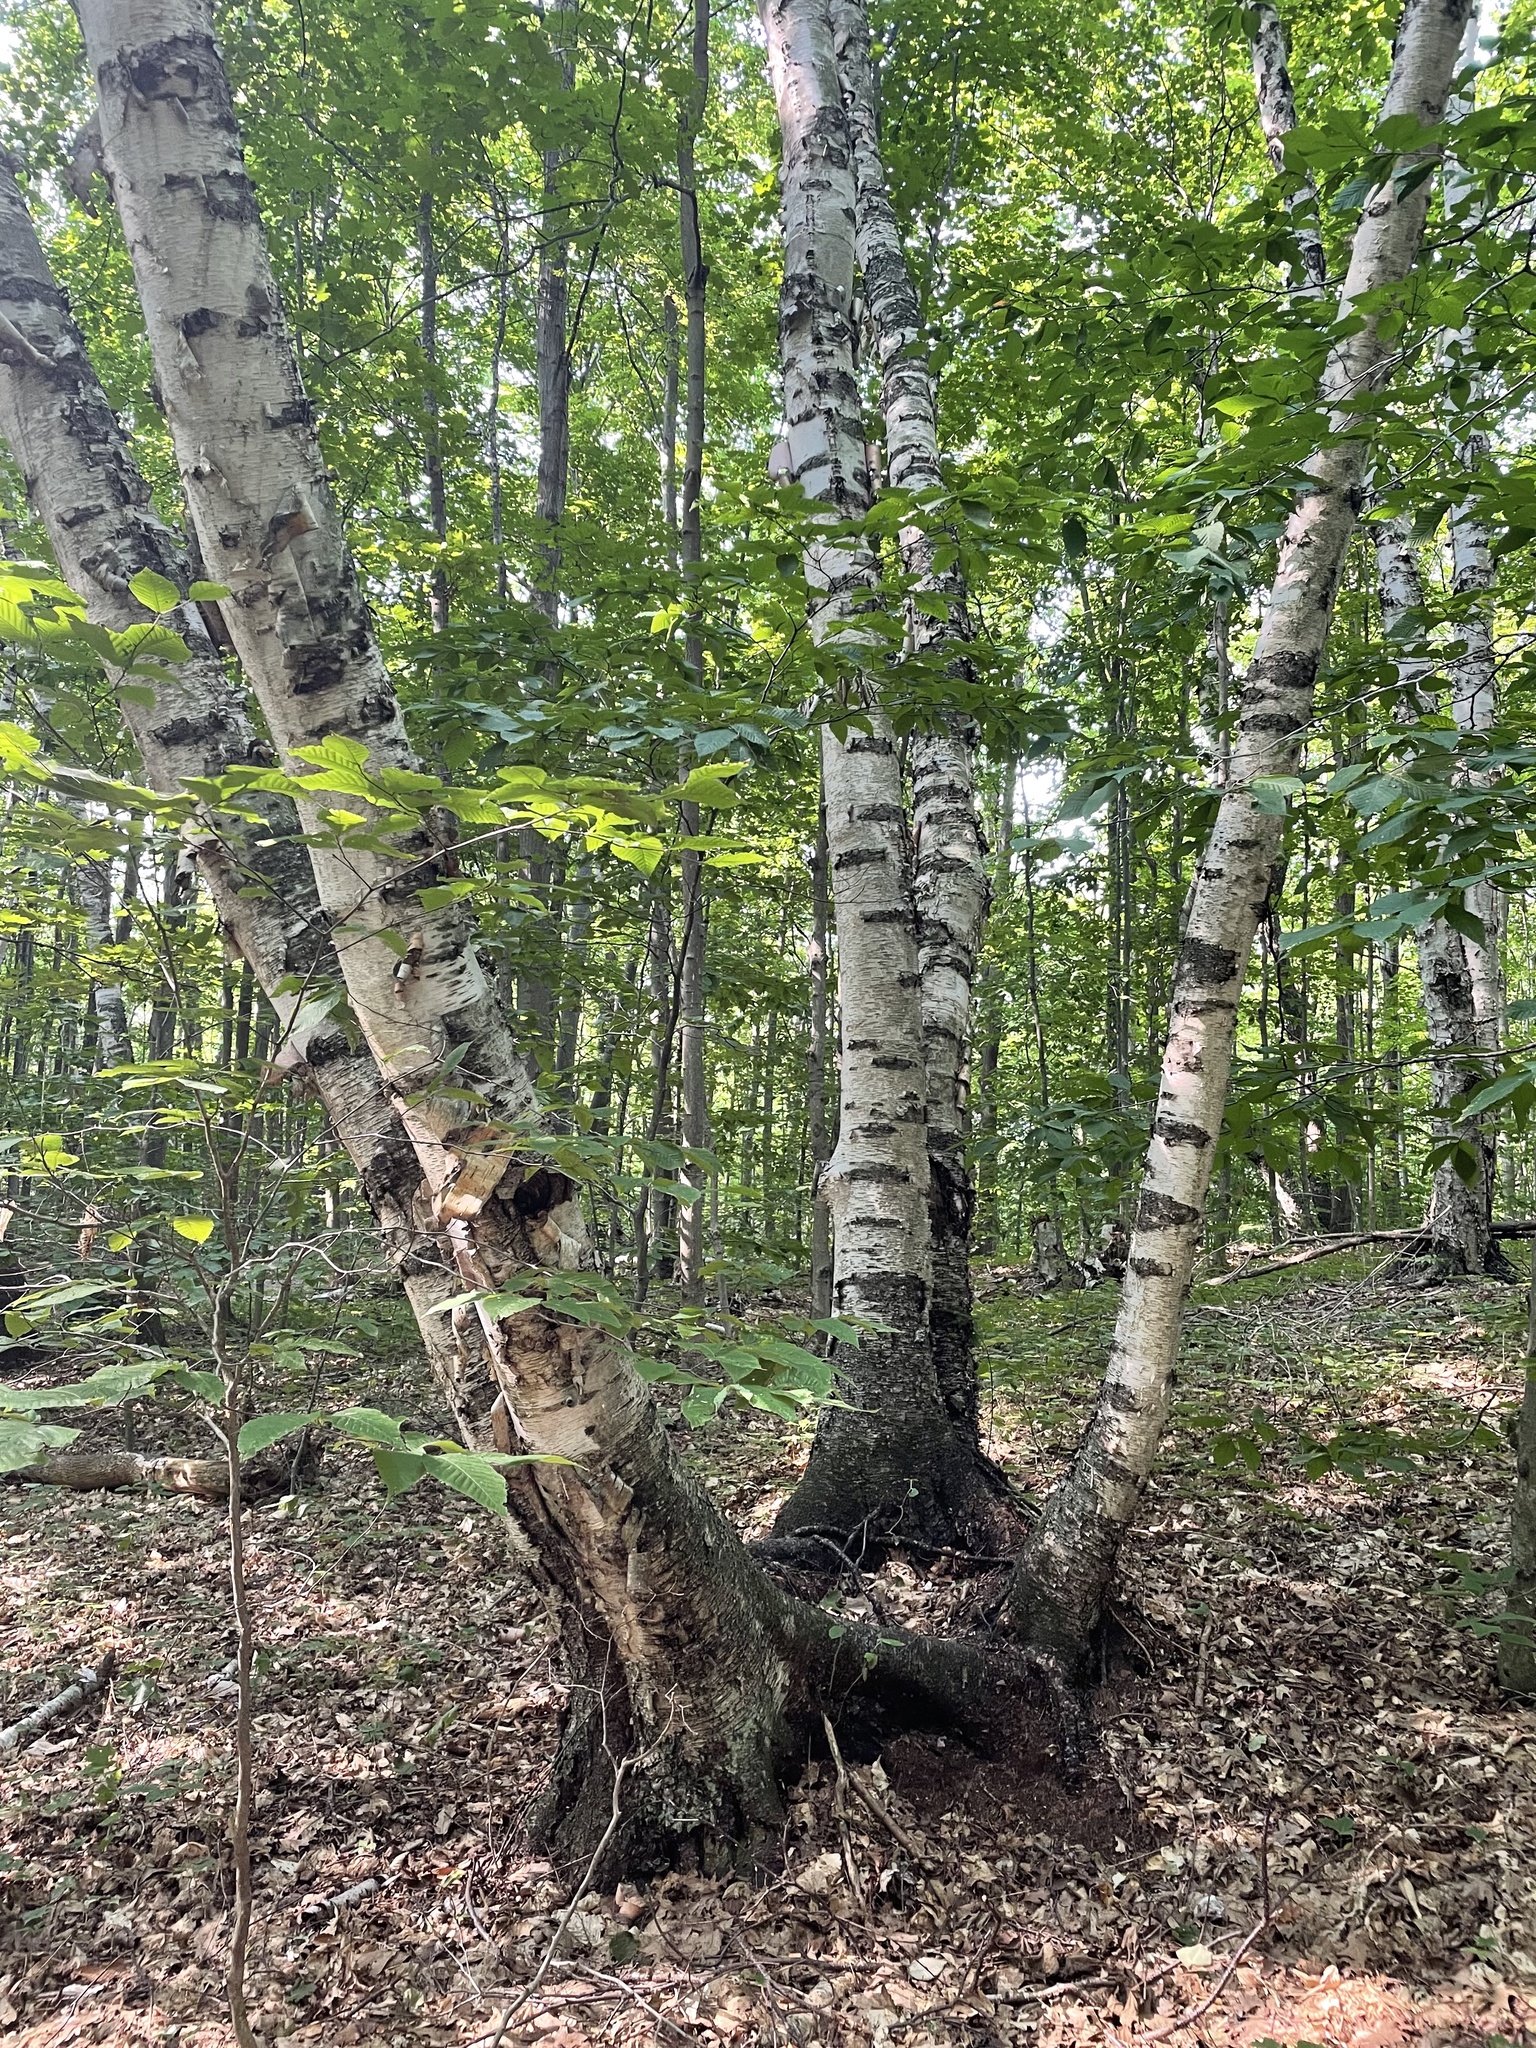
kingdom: Plantae
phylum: Tracheophyta
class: Magnoliopsida
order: Fagales
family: Betulaceae
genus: Betula
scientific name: Betula papyrifera
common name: Paper birch
